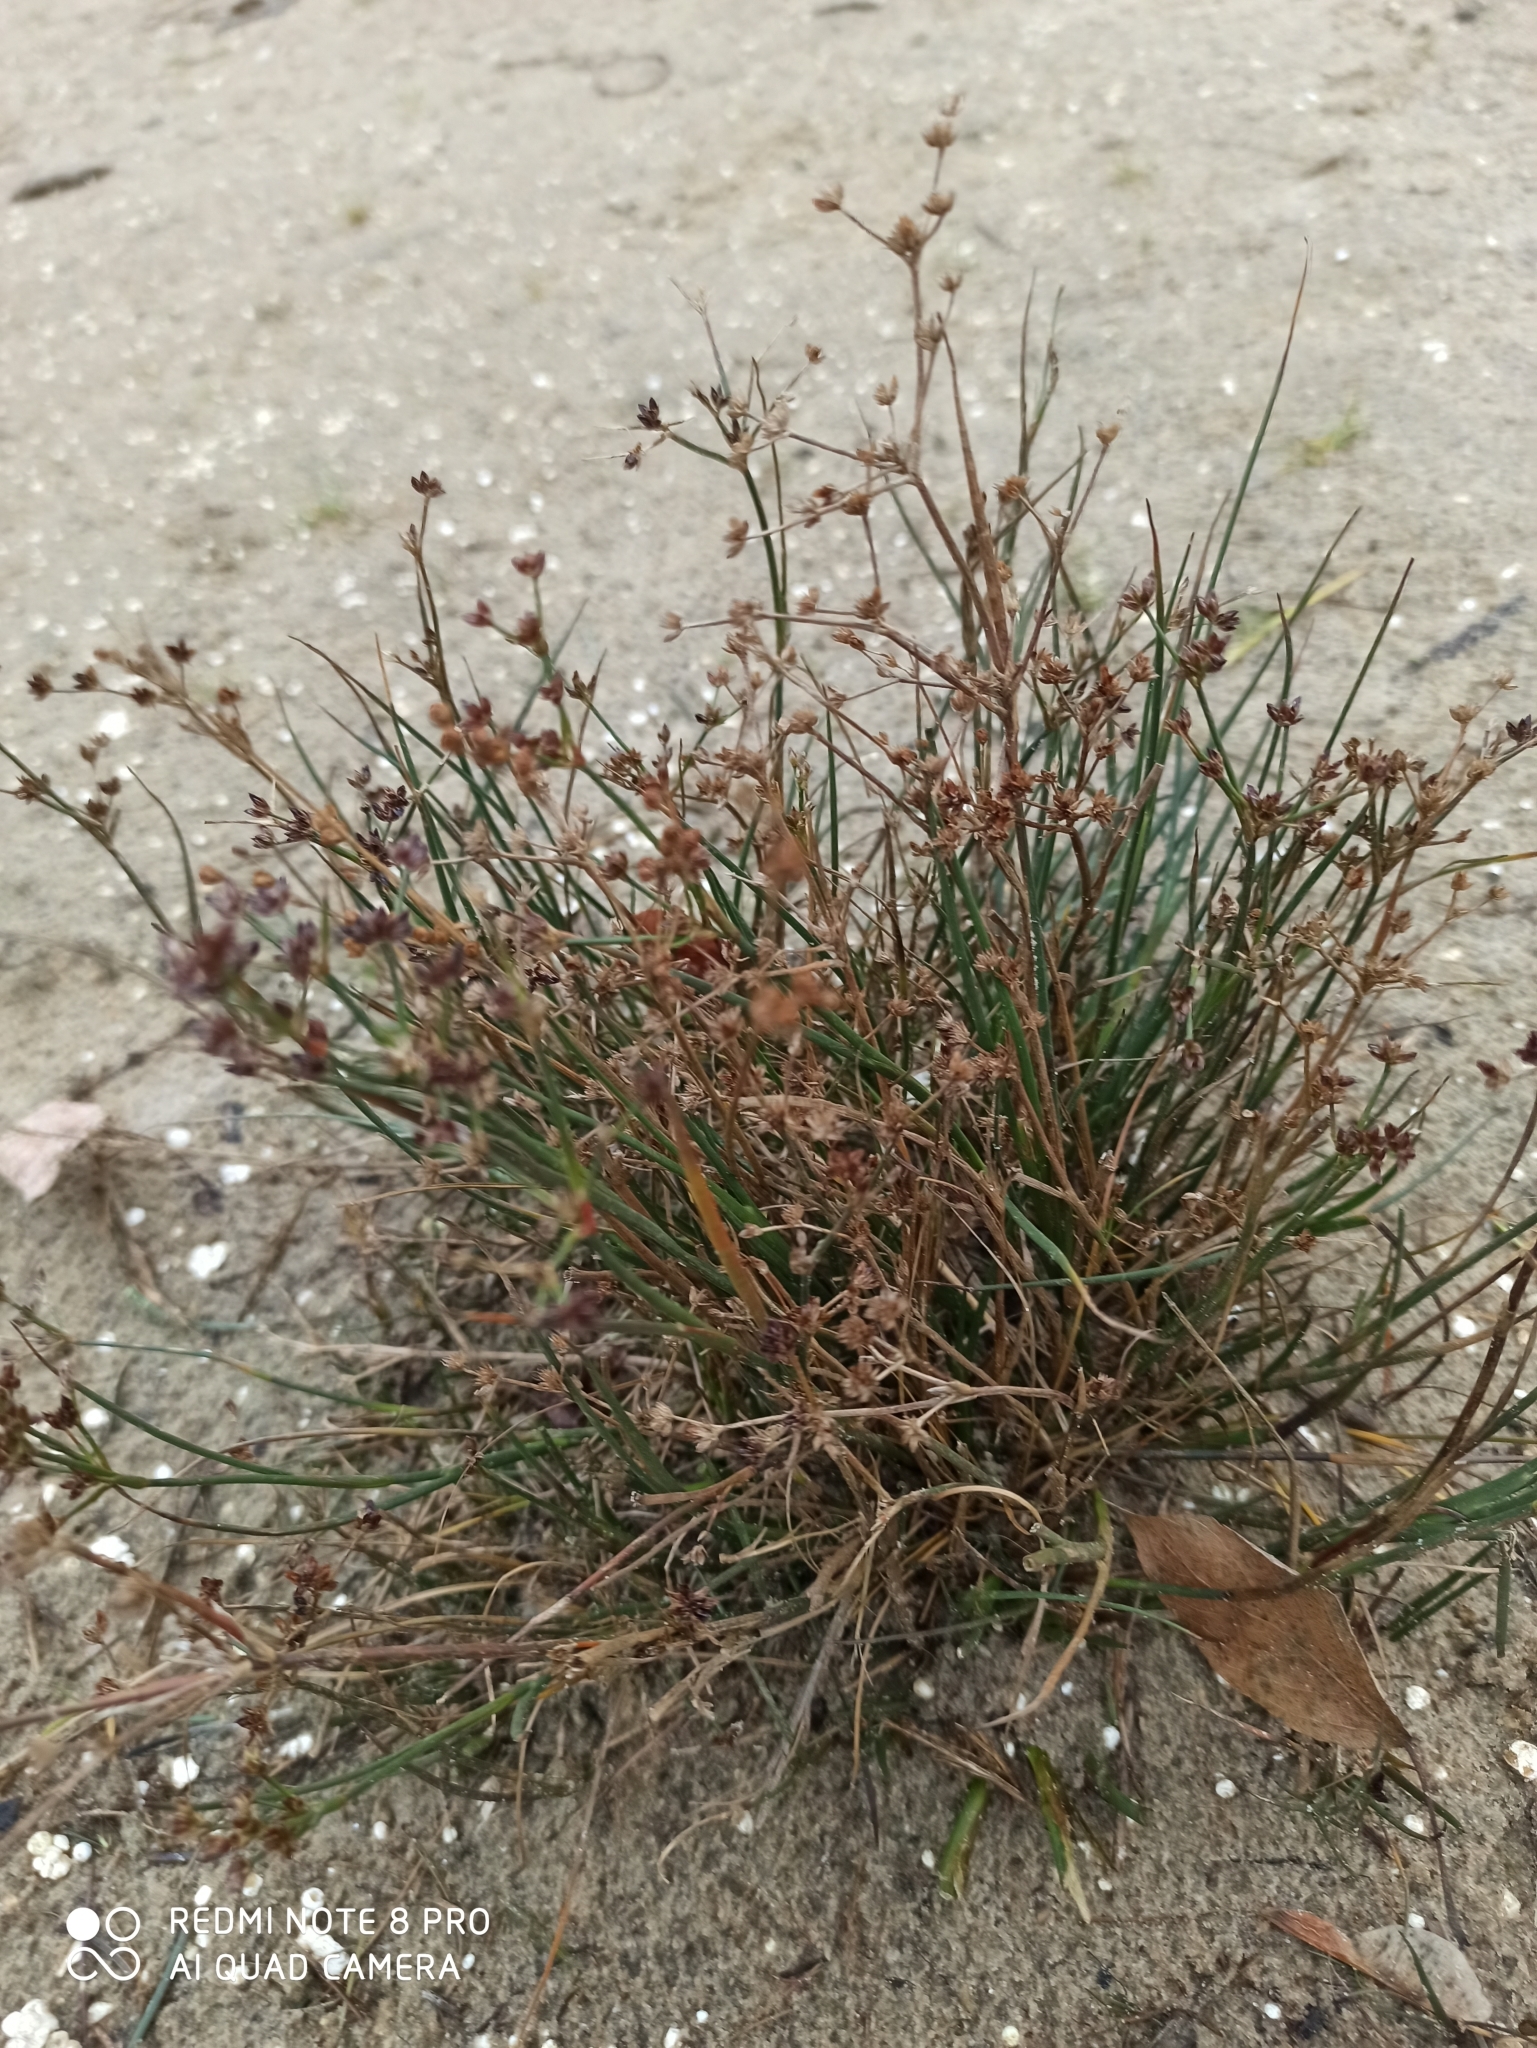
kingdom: Plantae
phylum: Tracheophyta
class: Liliopsida
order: Poales
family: Juncaceae
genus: Juncus
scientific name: Juncus articulatus
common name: Jointed rush
